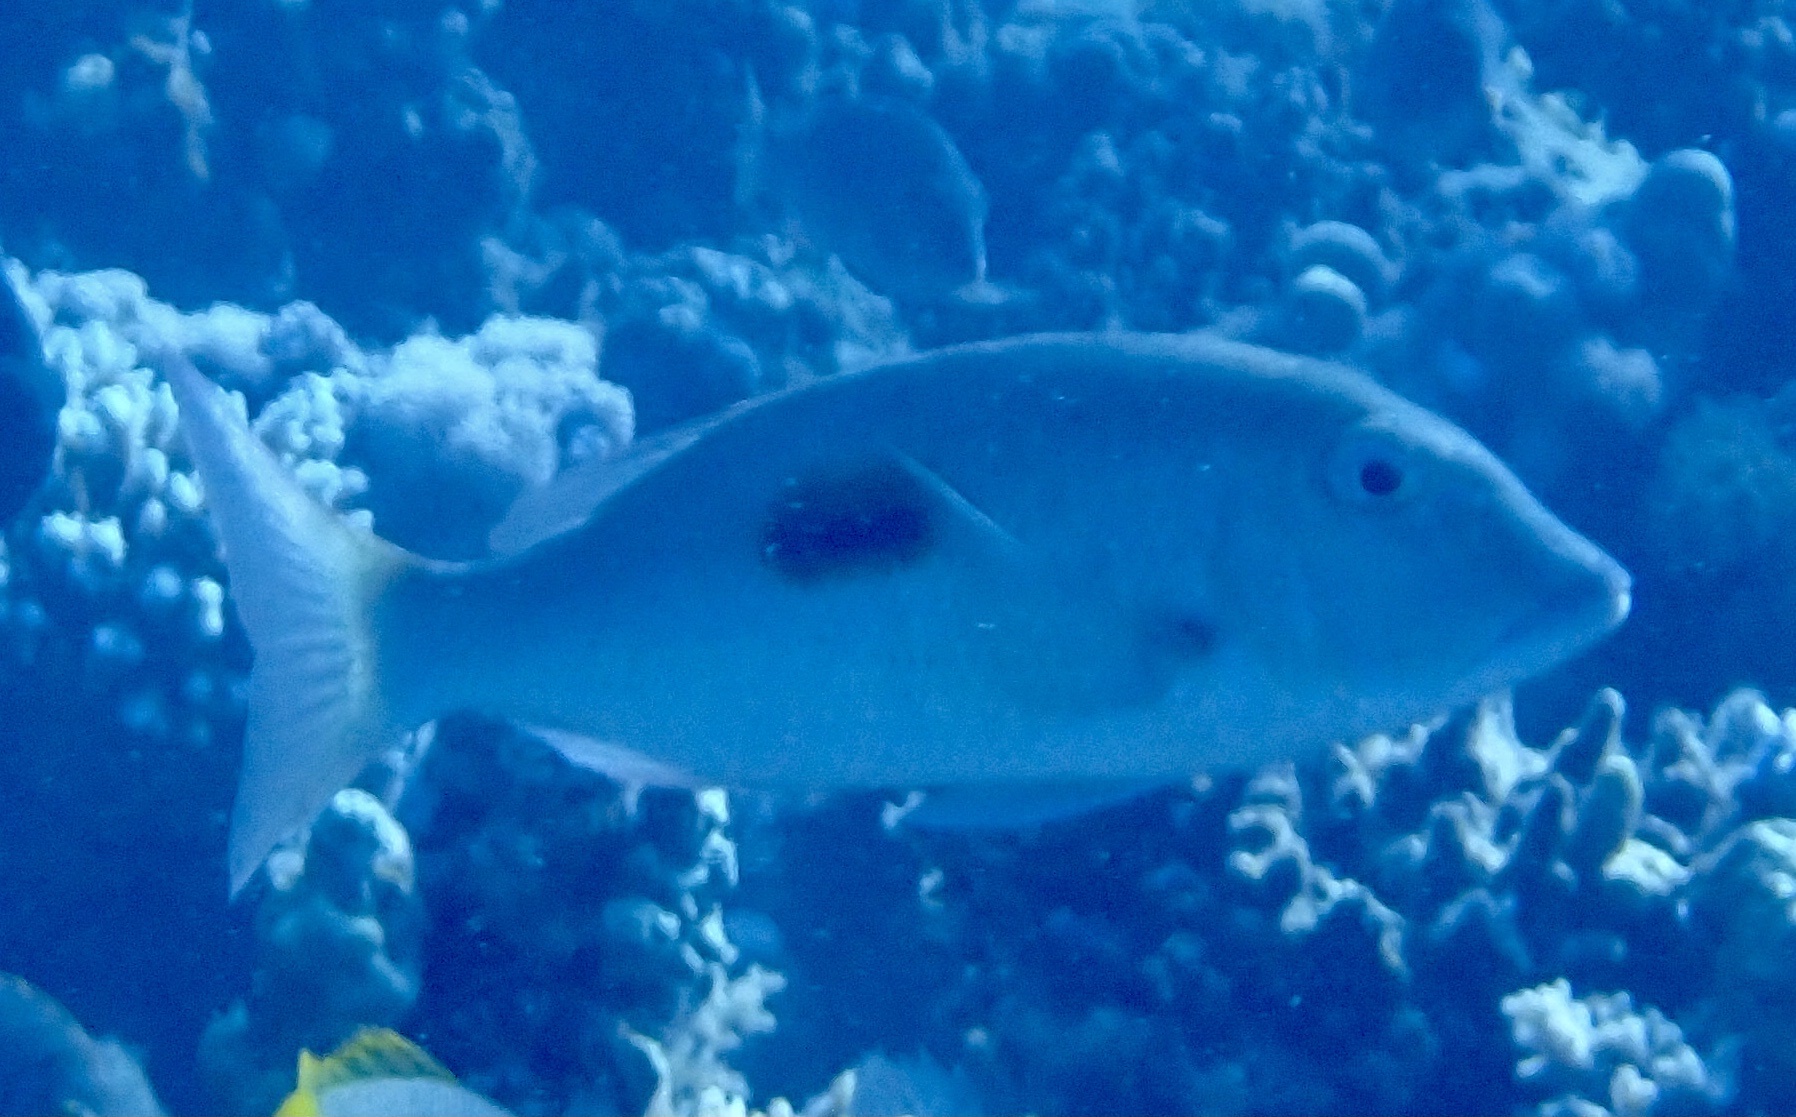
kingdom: Animalia
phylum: Chordata
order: Perciformes
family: Lethrinidae
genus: Lethrinus
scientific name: Lethrinus harak
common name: Blackspot emperor
